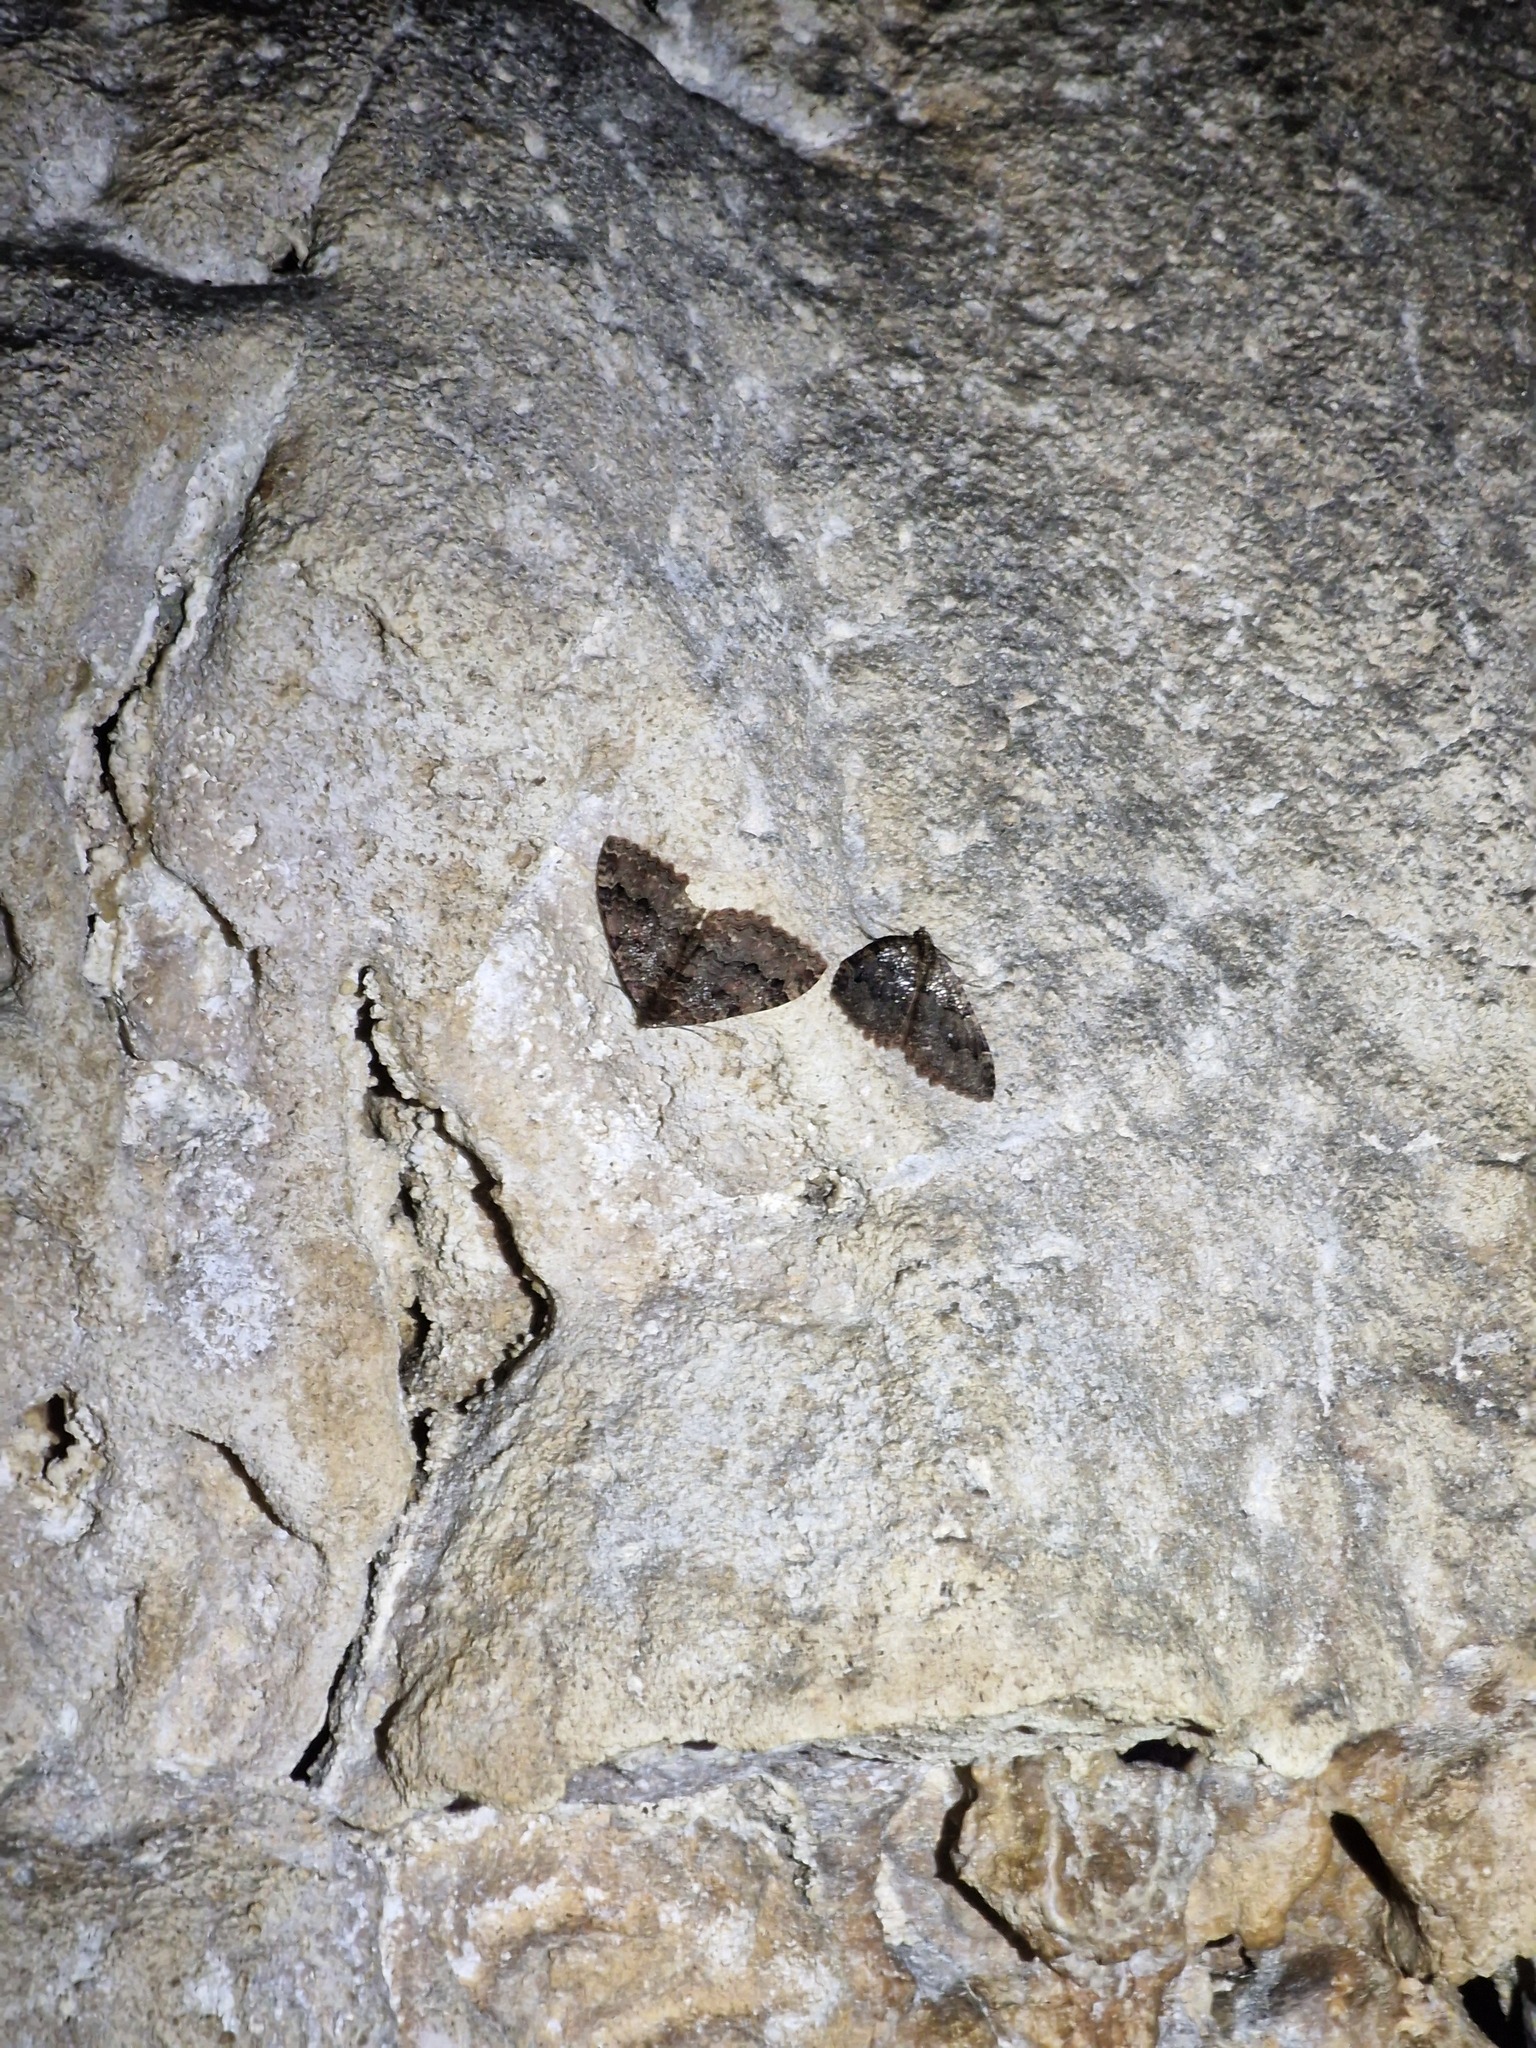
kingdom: Animalia
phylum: Arthropoda
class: Insecta
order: Lepidoptera
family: Geometridae
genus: Triphosa
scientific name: Triphosa dubitata
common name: Tissue
